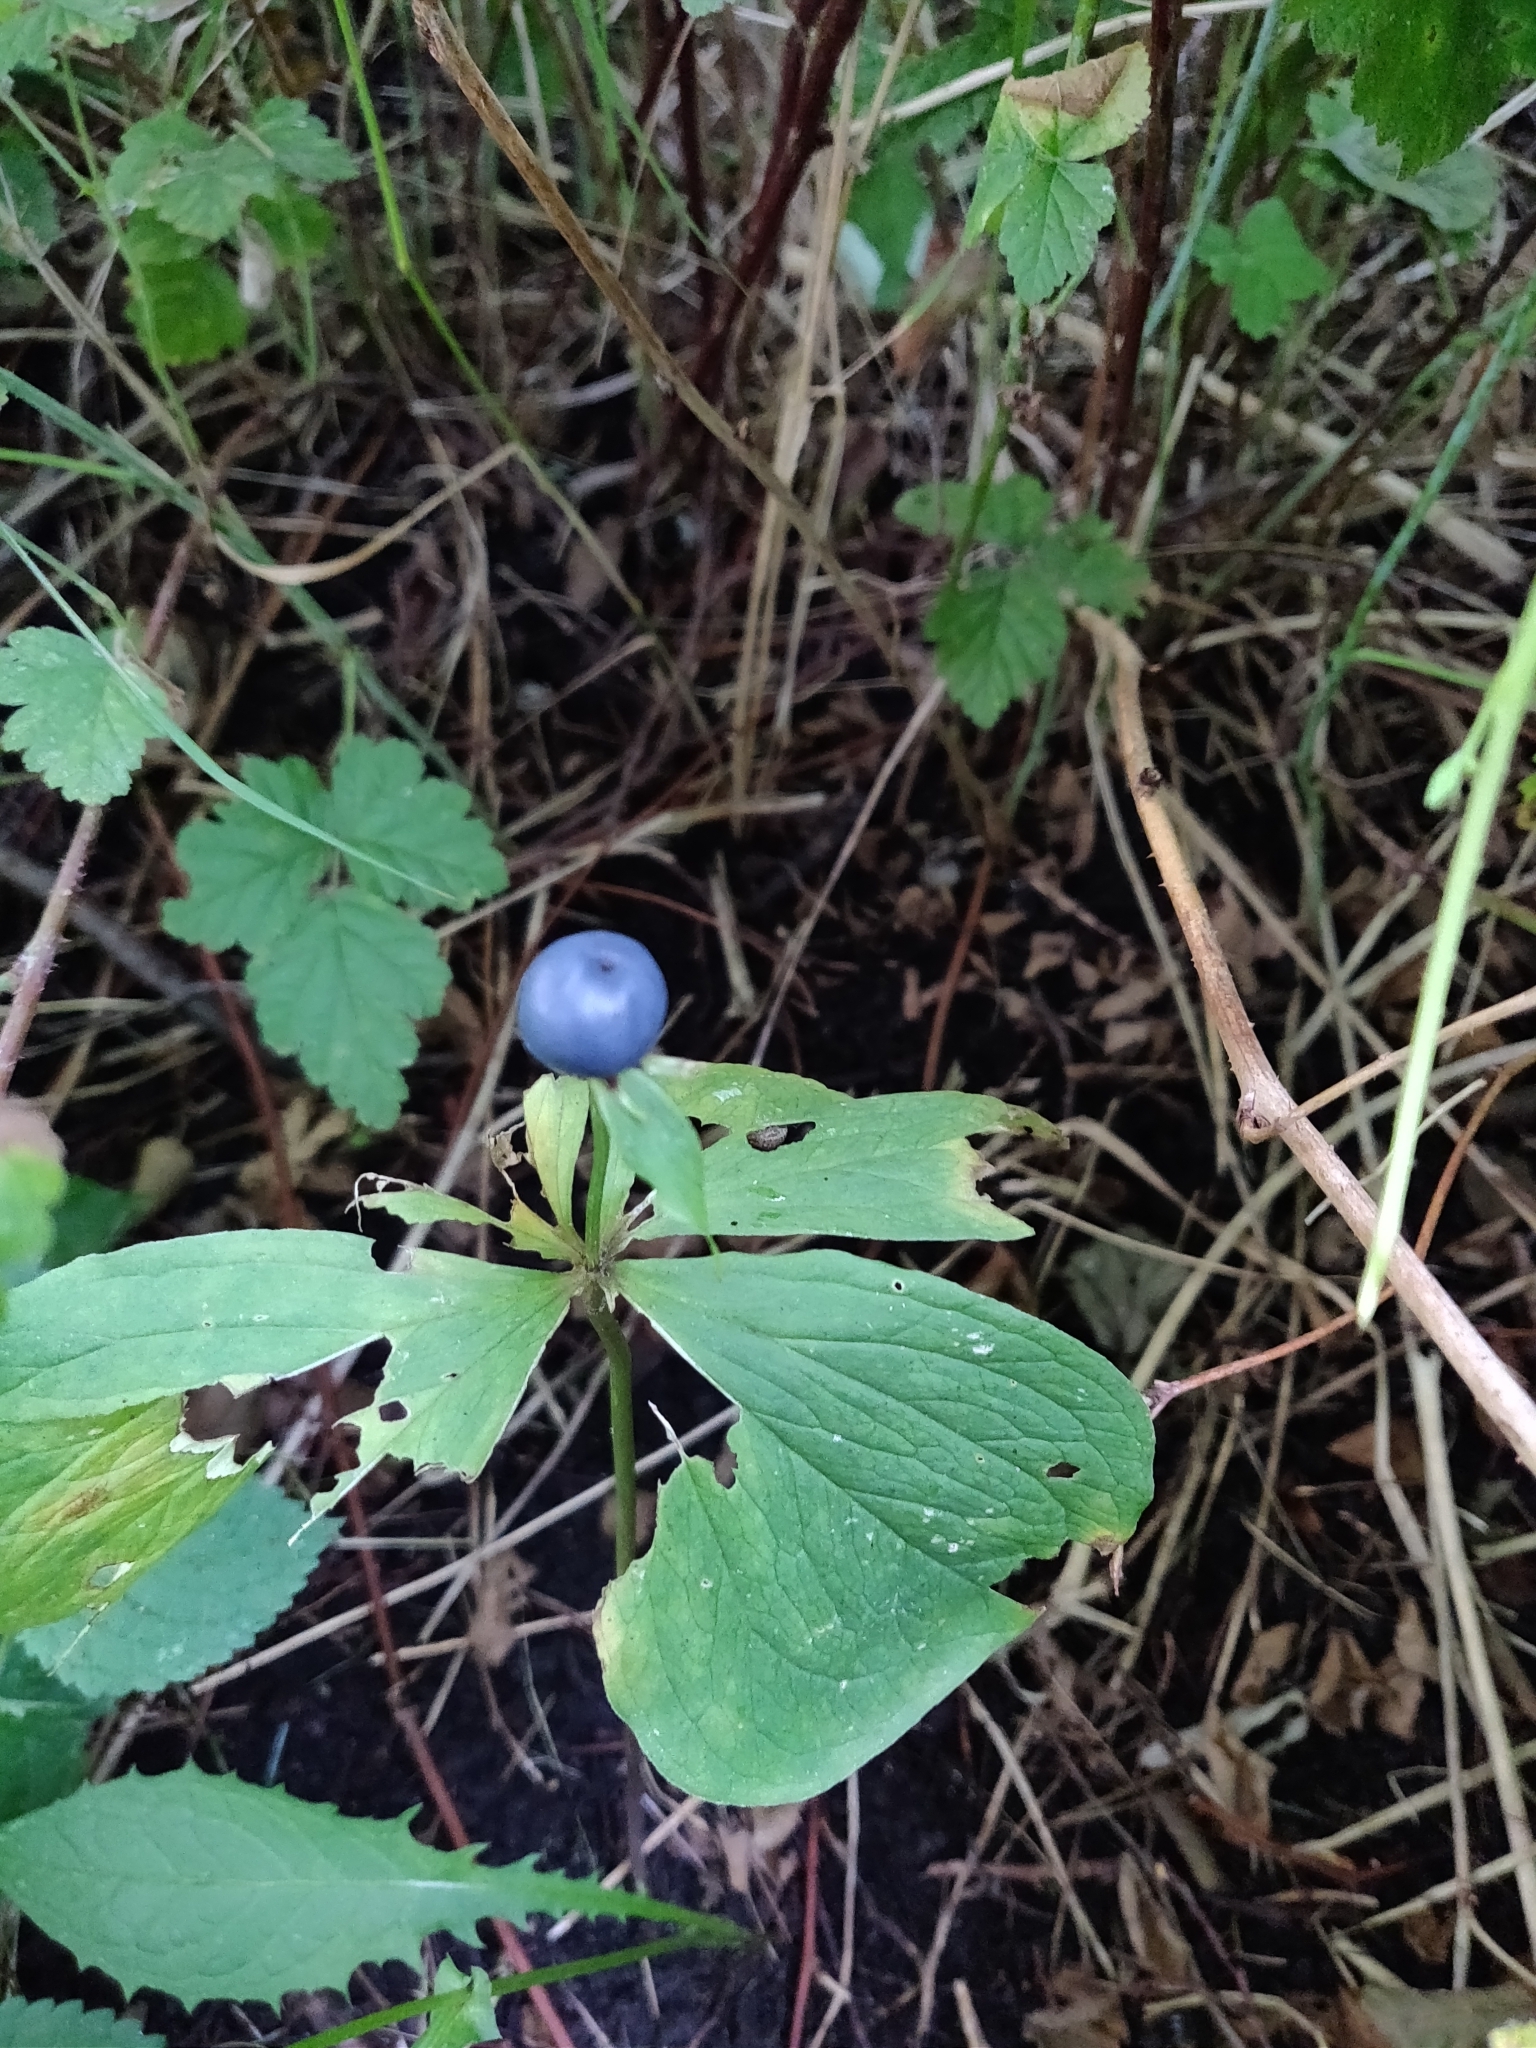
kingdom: Plantae
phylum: Tracheophyta
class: Liliopsida
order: Liliales
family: Melanthiaceae
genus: Paris
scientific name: Paris quadrifolia
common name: Herb-paris
